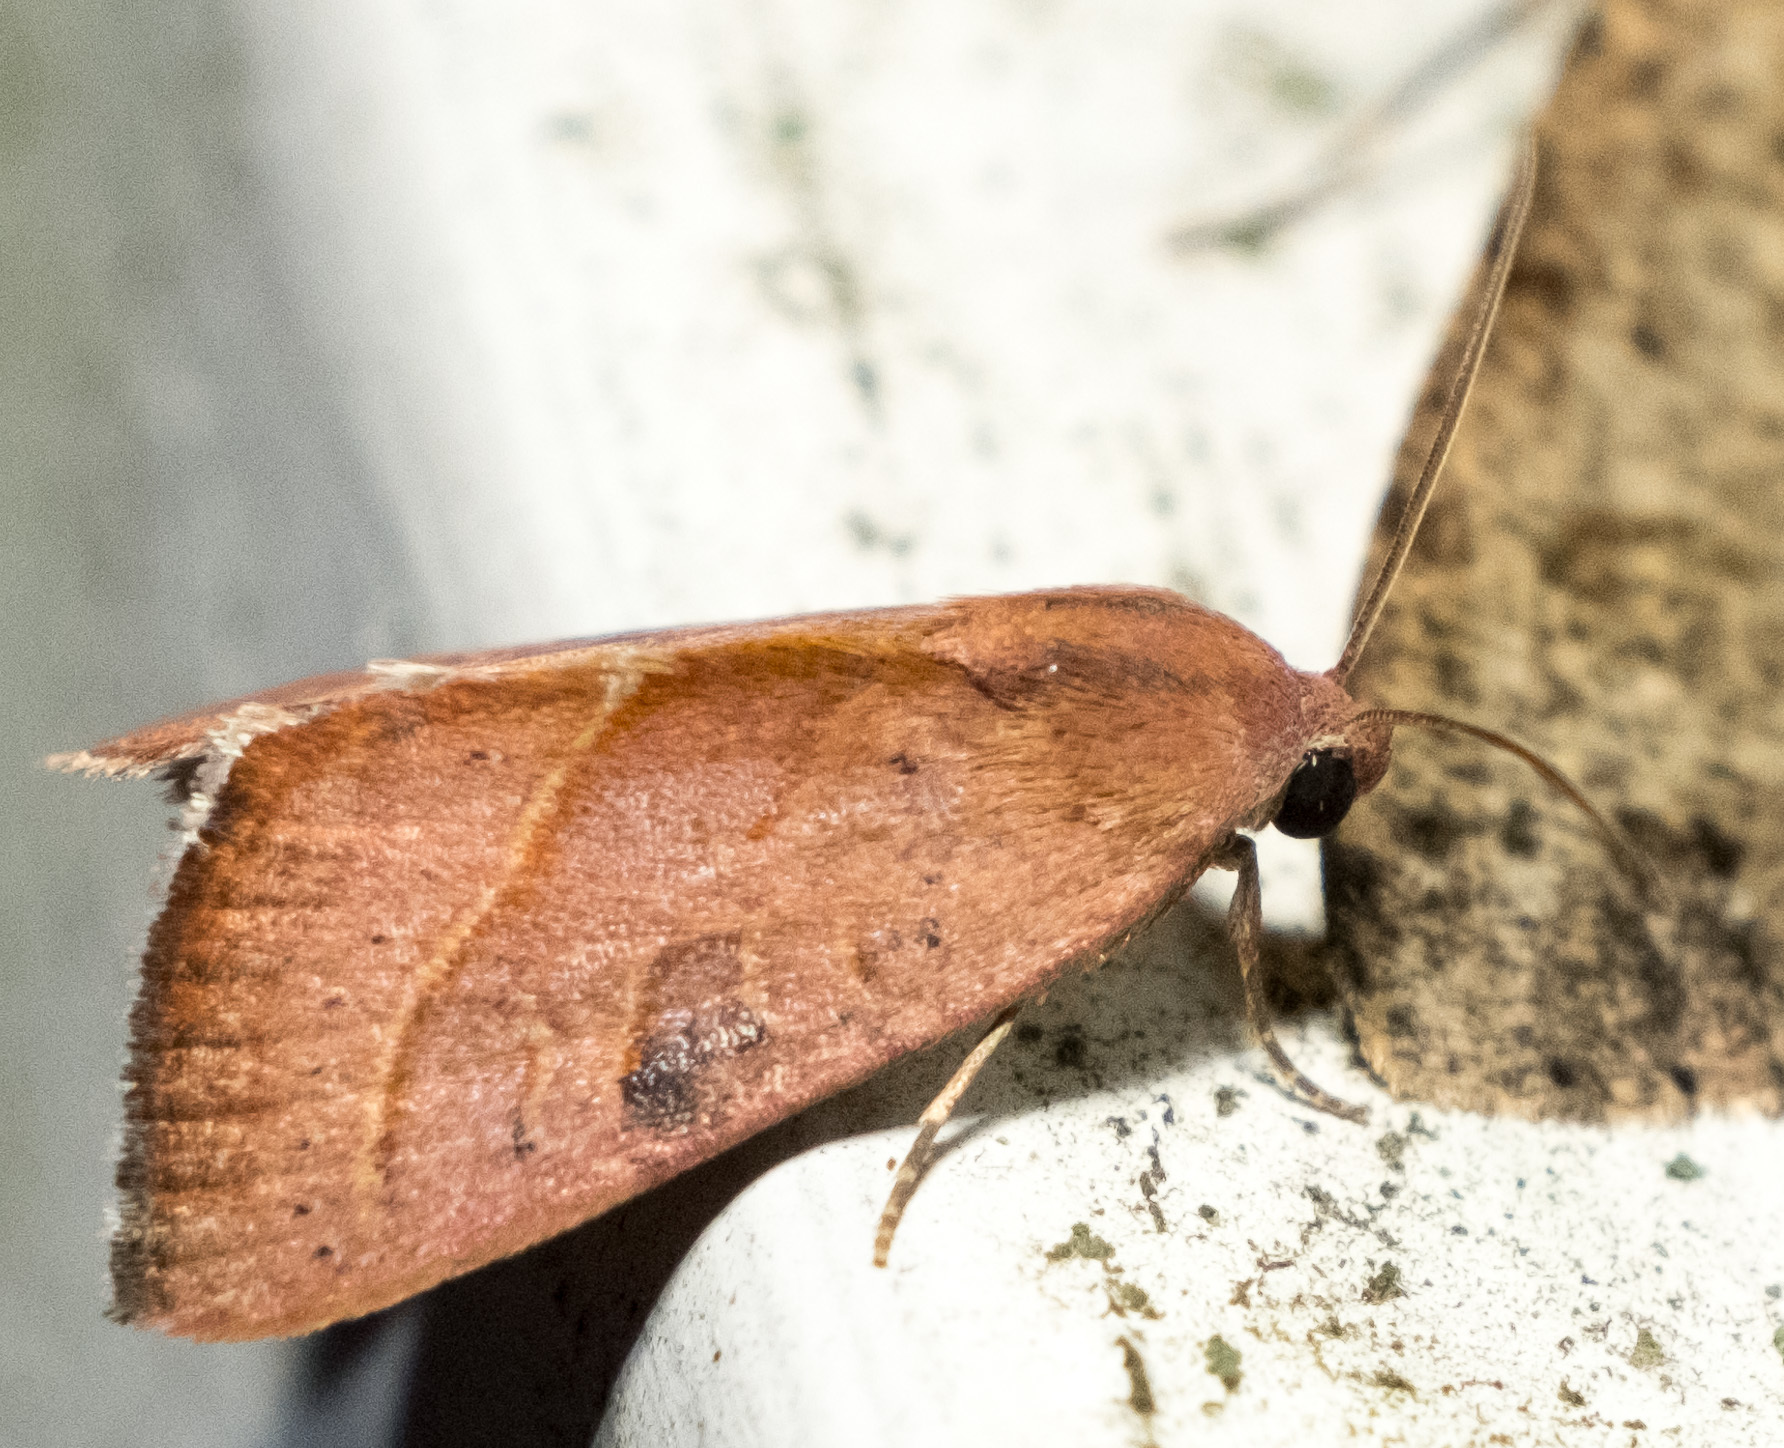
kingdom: Animalia
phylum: Arthropoda
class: Insecta
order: Lepidoptera
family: Noctuidae
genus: Galgula
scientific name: Galgula partita
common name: Wedgeling
